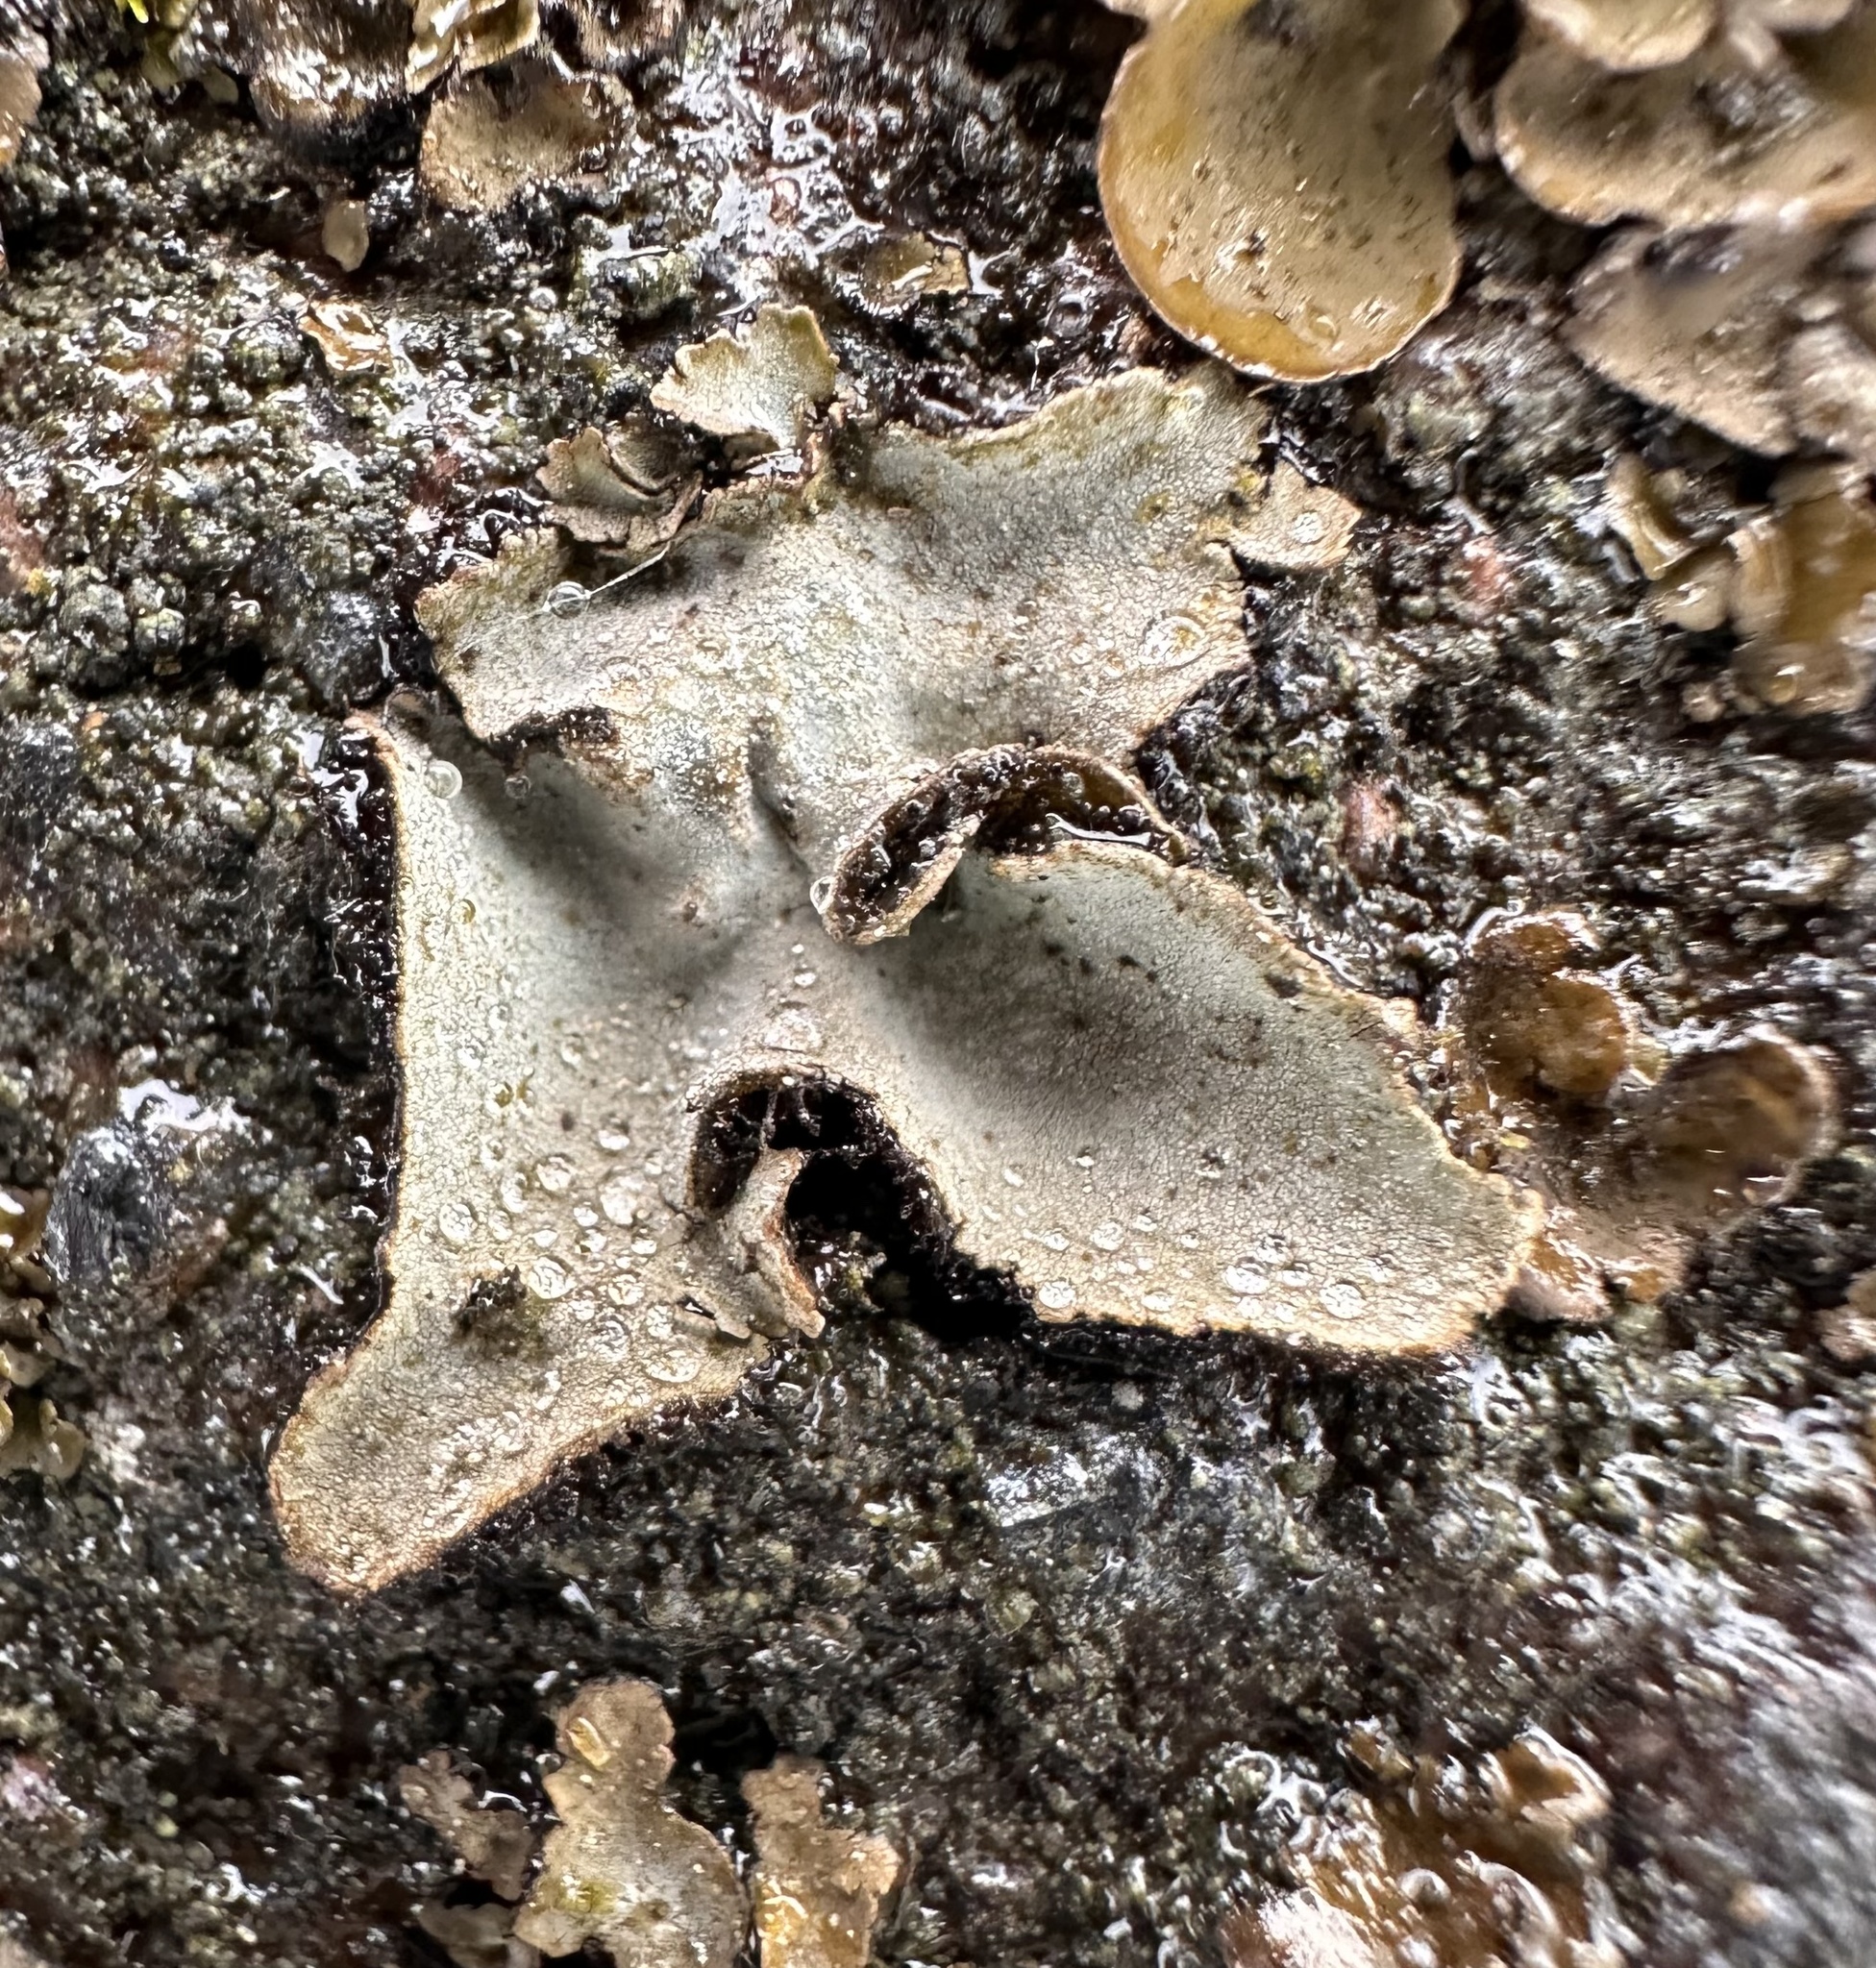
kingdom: Fungi
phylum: Ascomycota
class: Lecanoromycetes
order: Umbilicariales
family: Umbilicariaceae
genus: Umbilicaria
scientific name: Umbilicaria hirsuta
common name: Granulating rocktripe lichen
